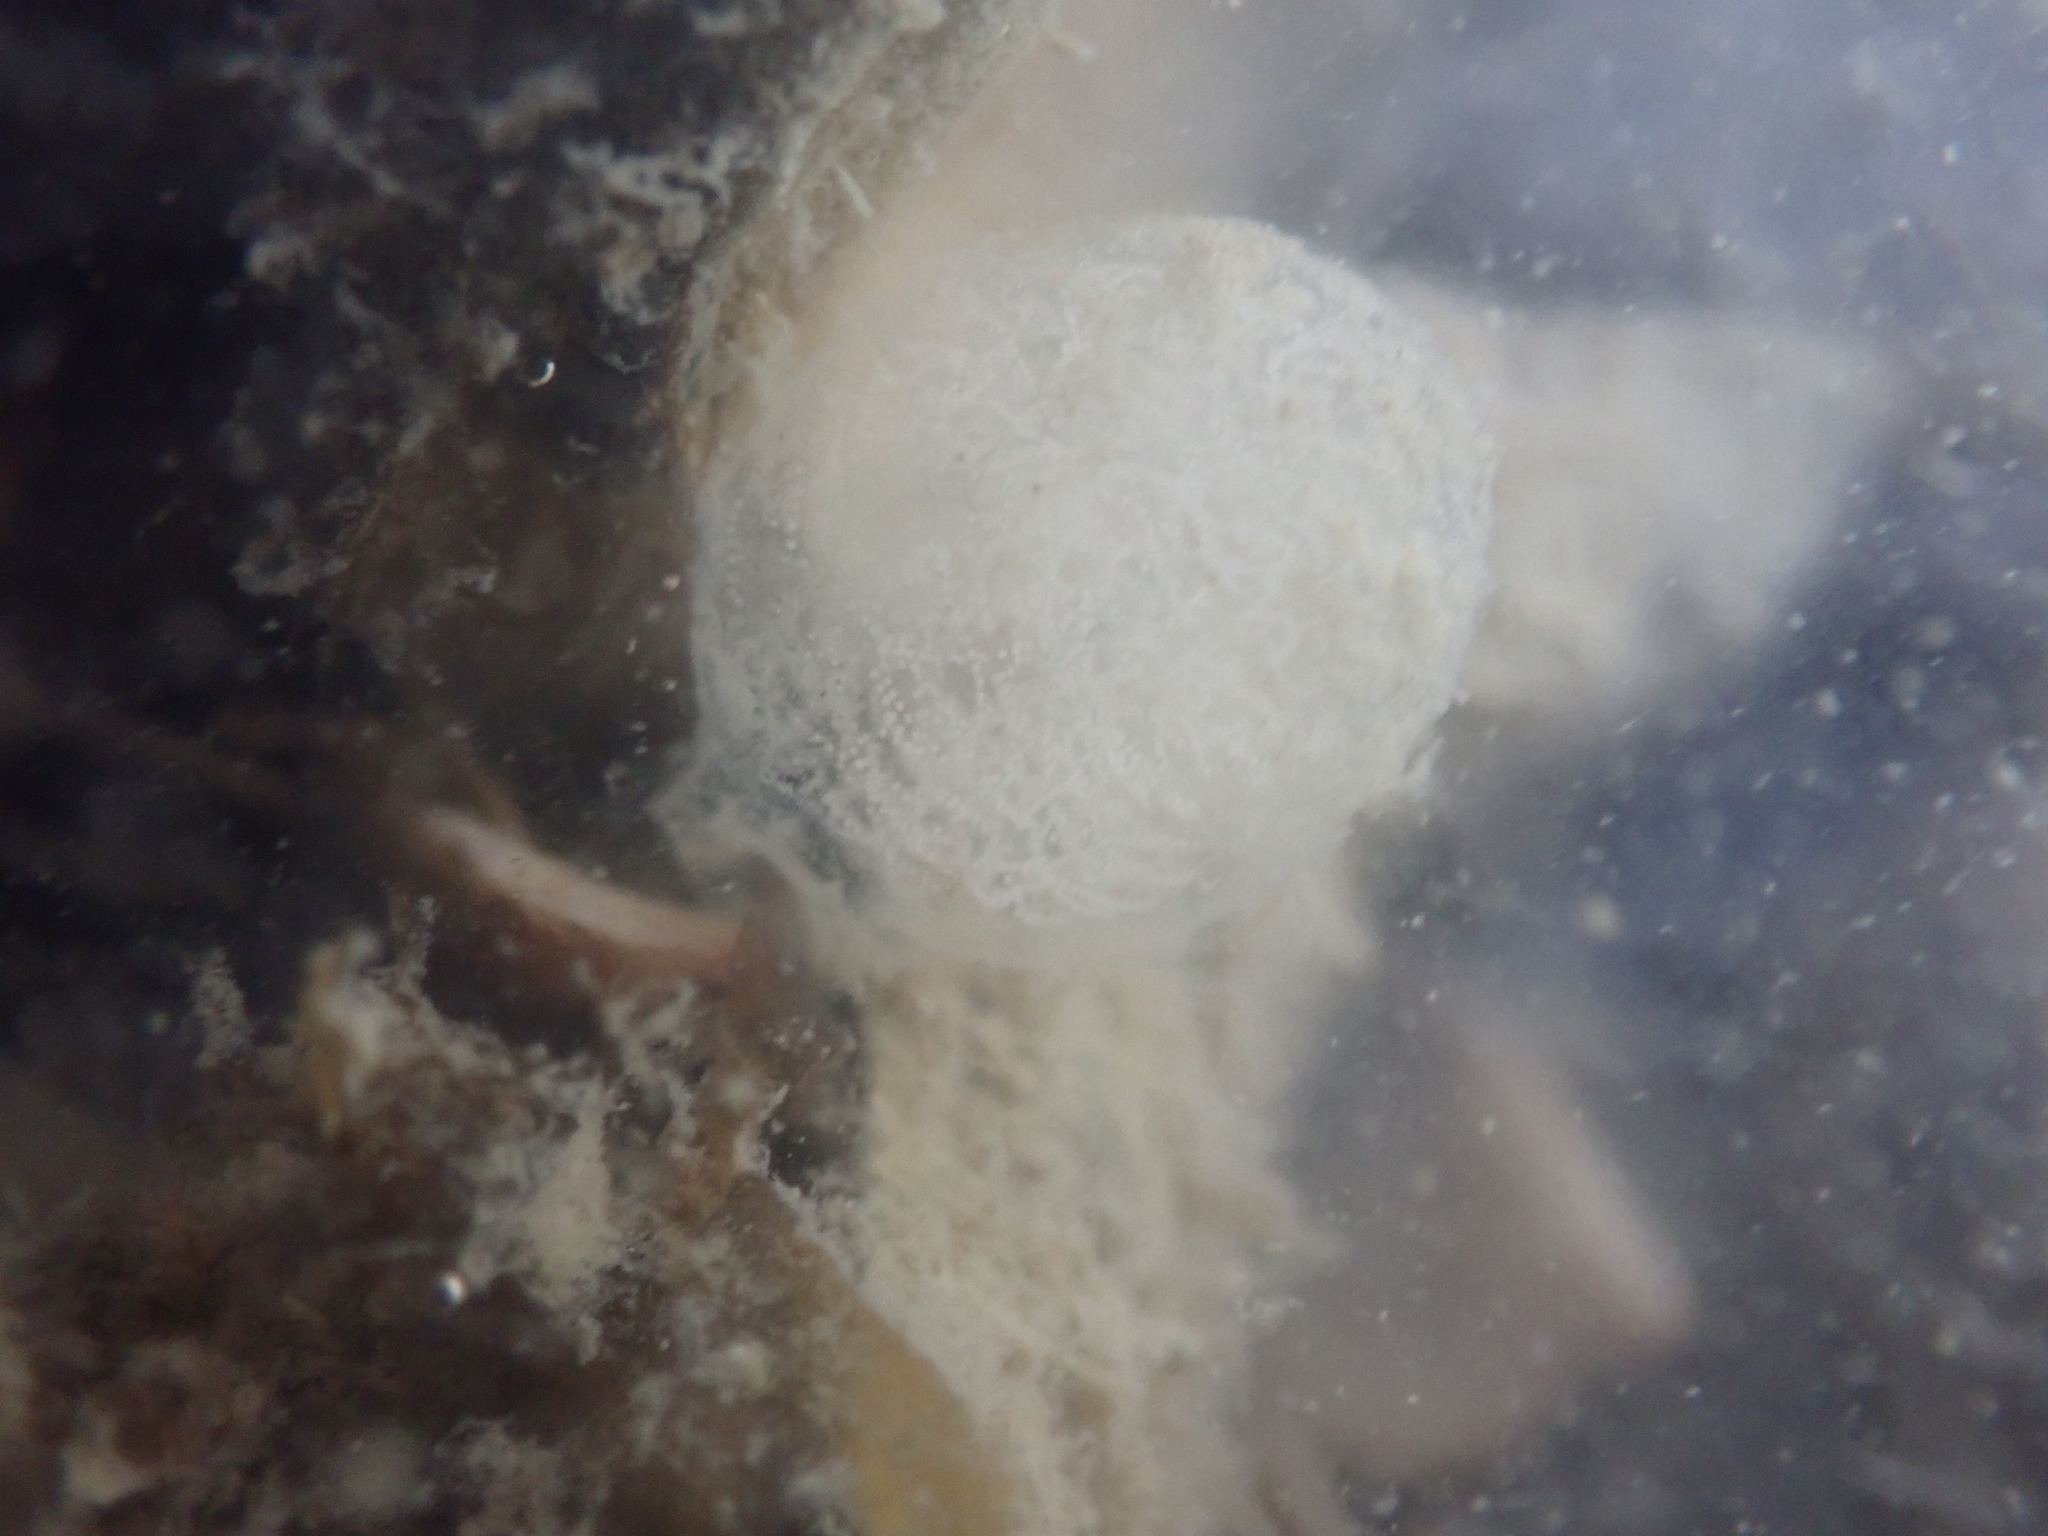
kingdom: Animalia
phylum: Mollusca
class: Gastropoda
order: Cephalaspidea
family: Aglajidae
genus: Melanochlamys
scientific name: Melanochlamys cylindrica
